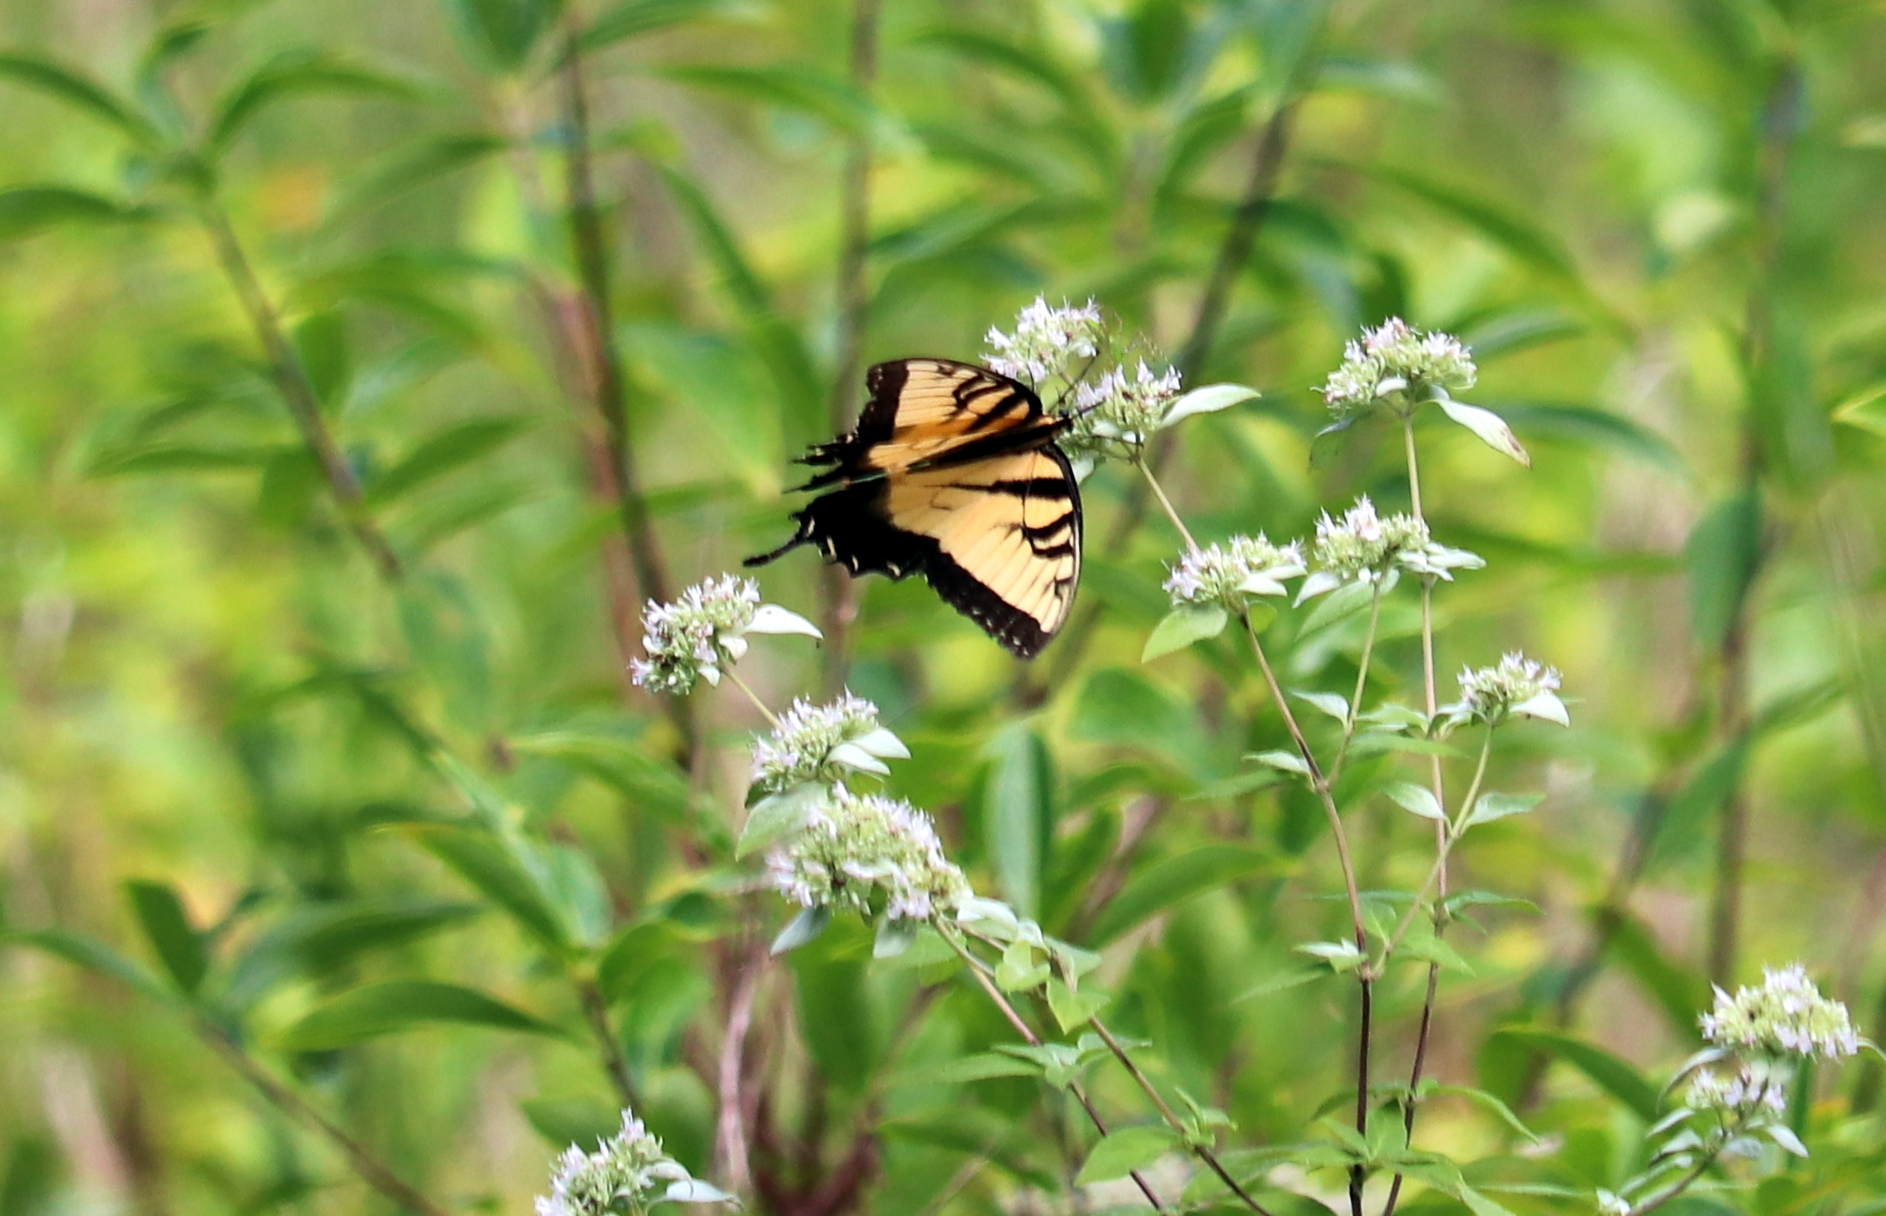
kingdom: Animalia
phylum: Arthropoda
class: Insecta
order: Lepidoptera
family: Papilionidae
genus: Papilio
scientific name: Papilio glaucus
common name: Tiger swallowtail
